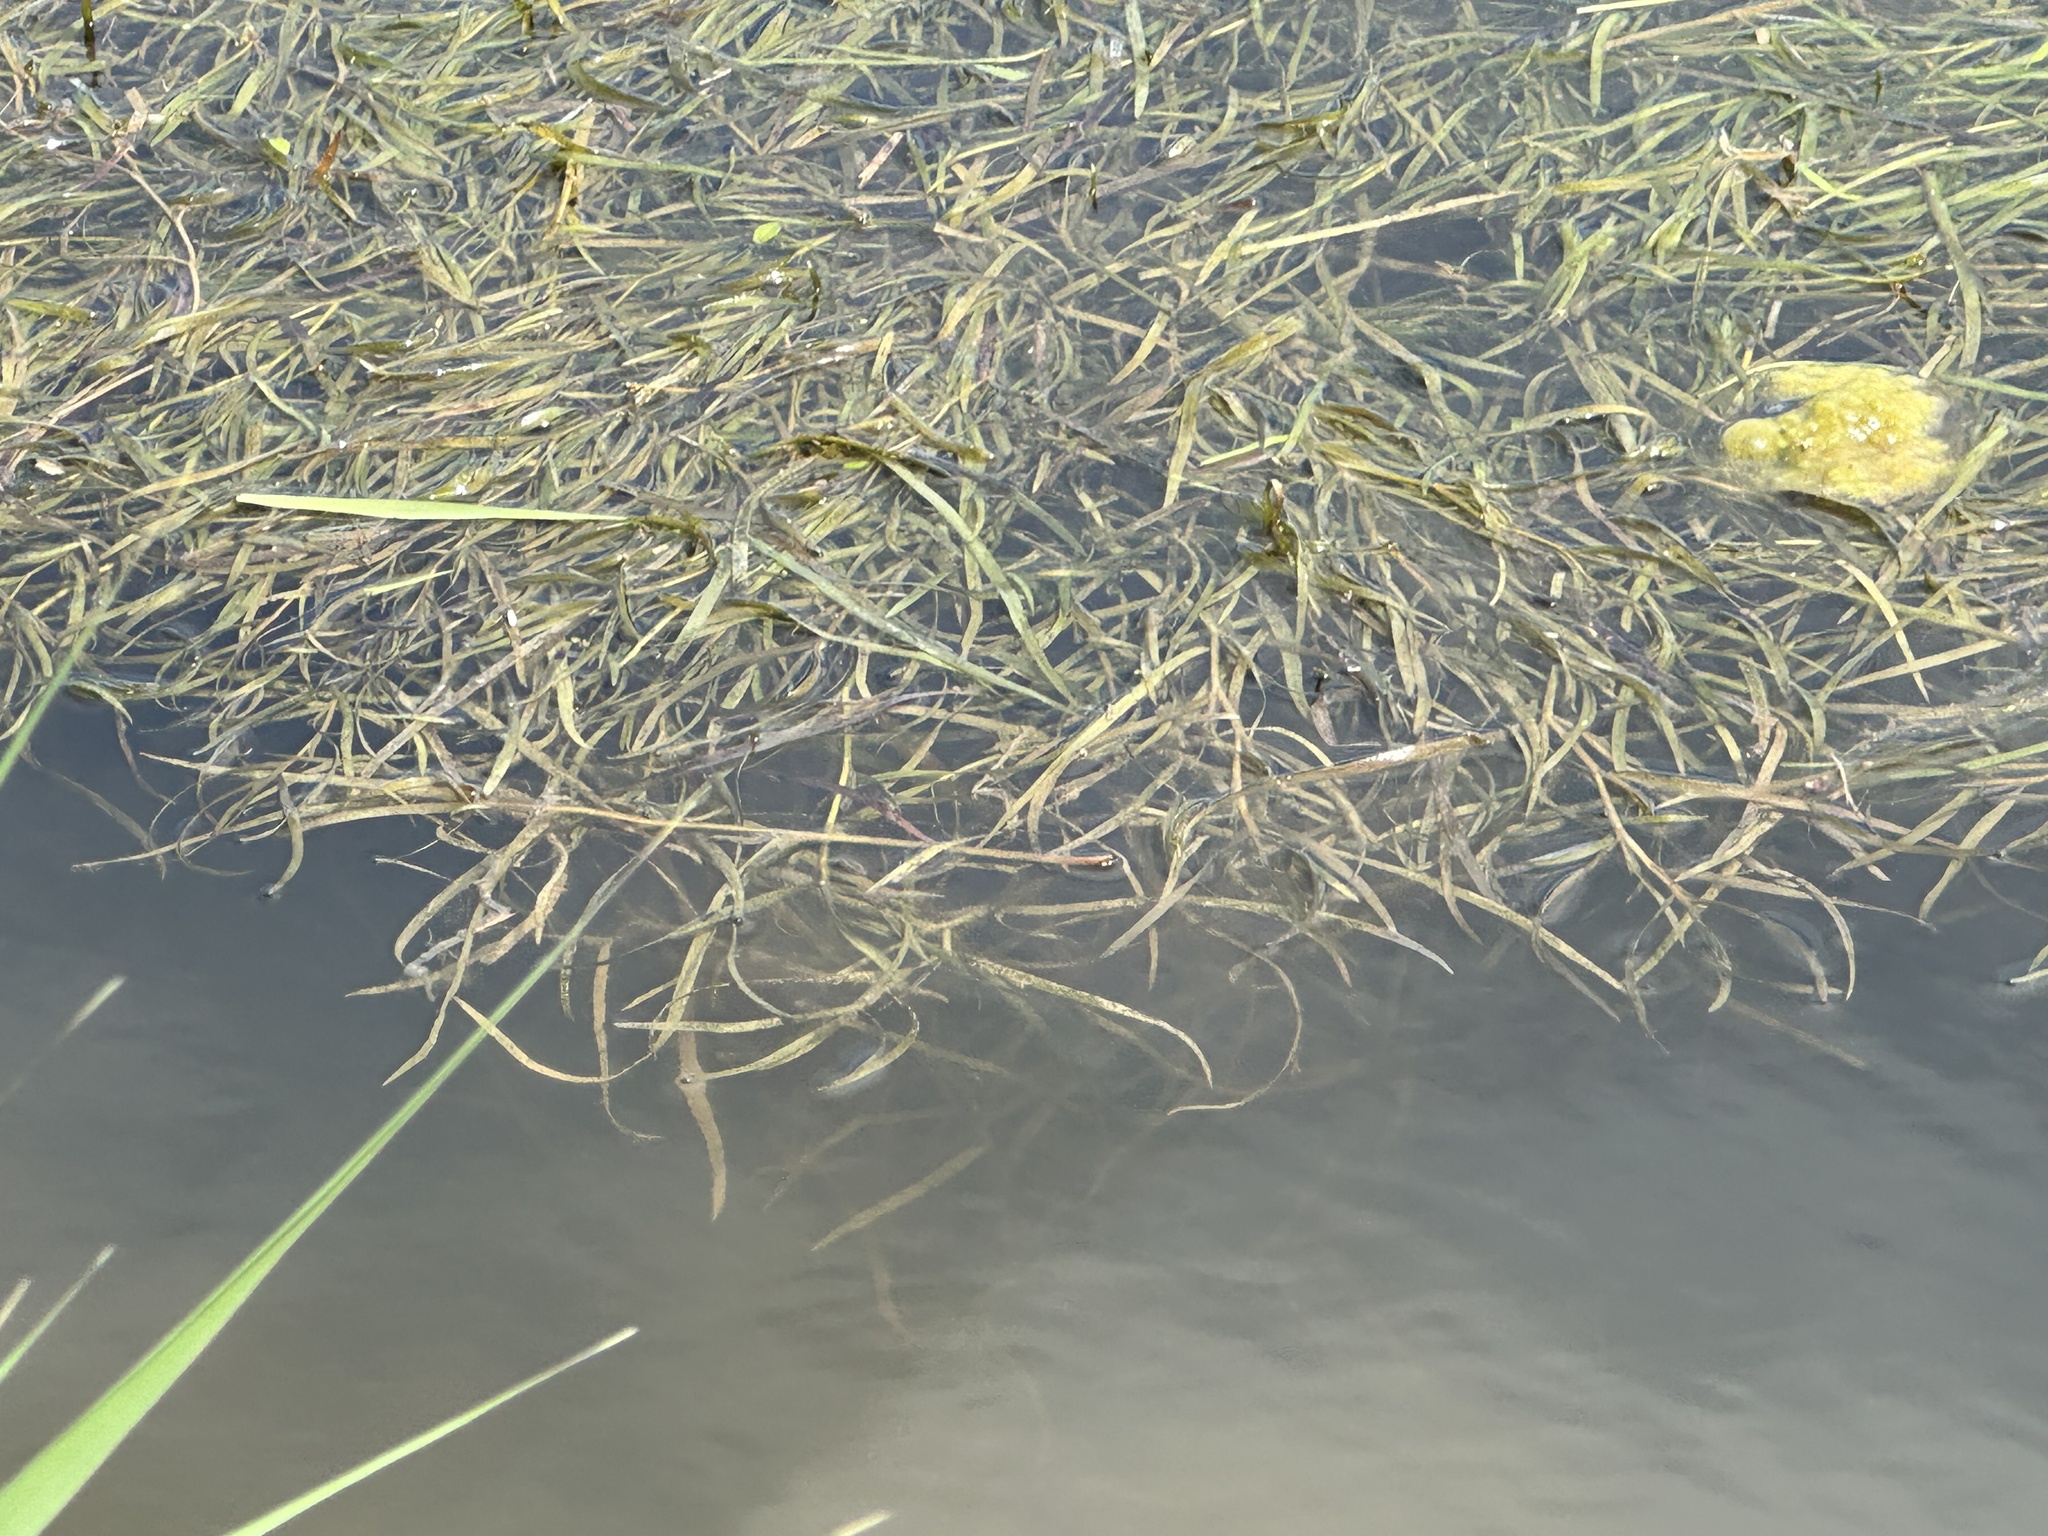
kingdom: Plantae
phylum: Tracheophyta
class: Liliopsida
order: Commelinales
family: Pontederiaceae
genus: Heteranthera
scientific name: Heteranthera dubia
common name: Grass-leaved mud plantain
